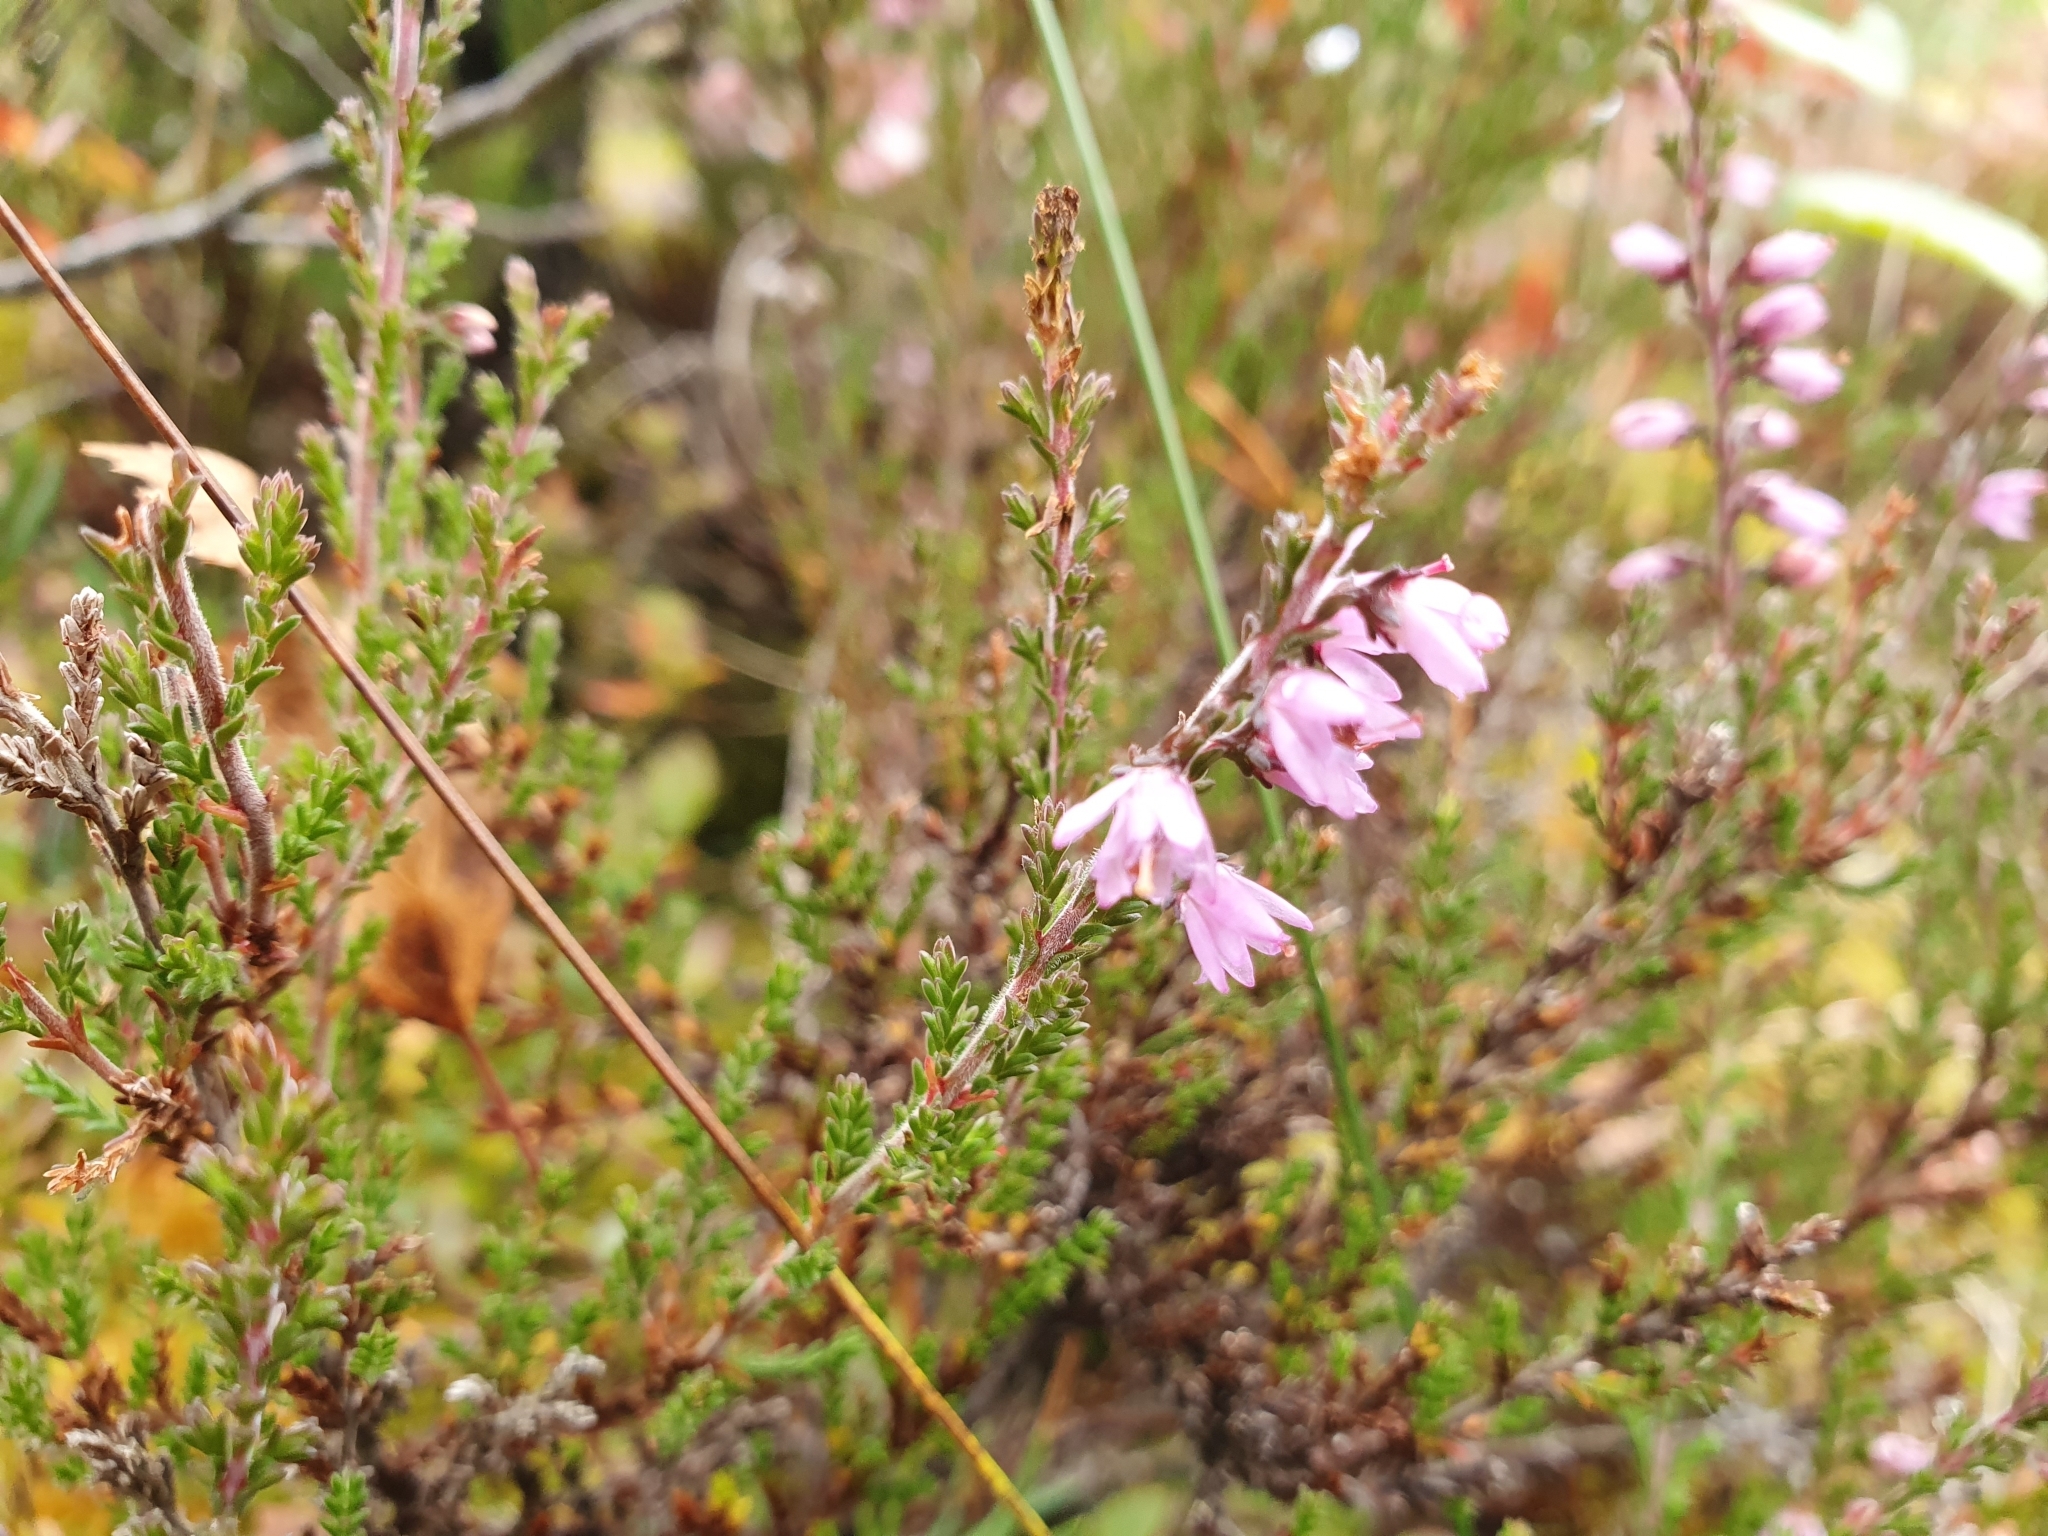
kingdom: Plantae
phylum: Tracheophyta
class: Magnoliopsida
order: Ericales
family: Ericaceae
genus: Calluna
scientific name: Calluna vulgaris
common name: Heather
